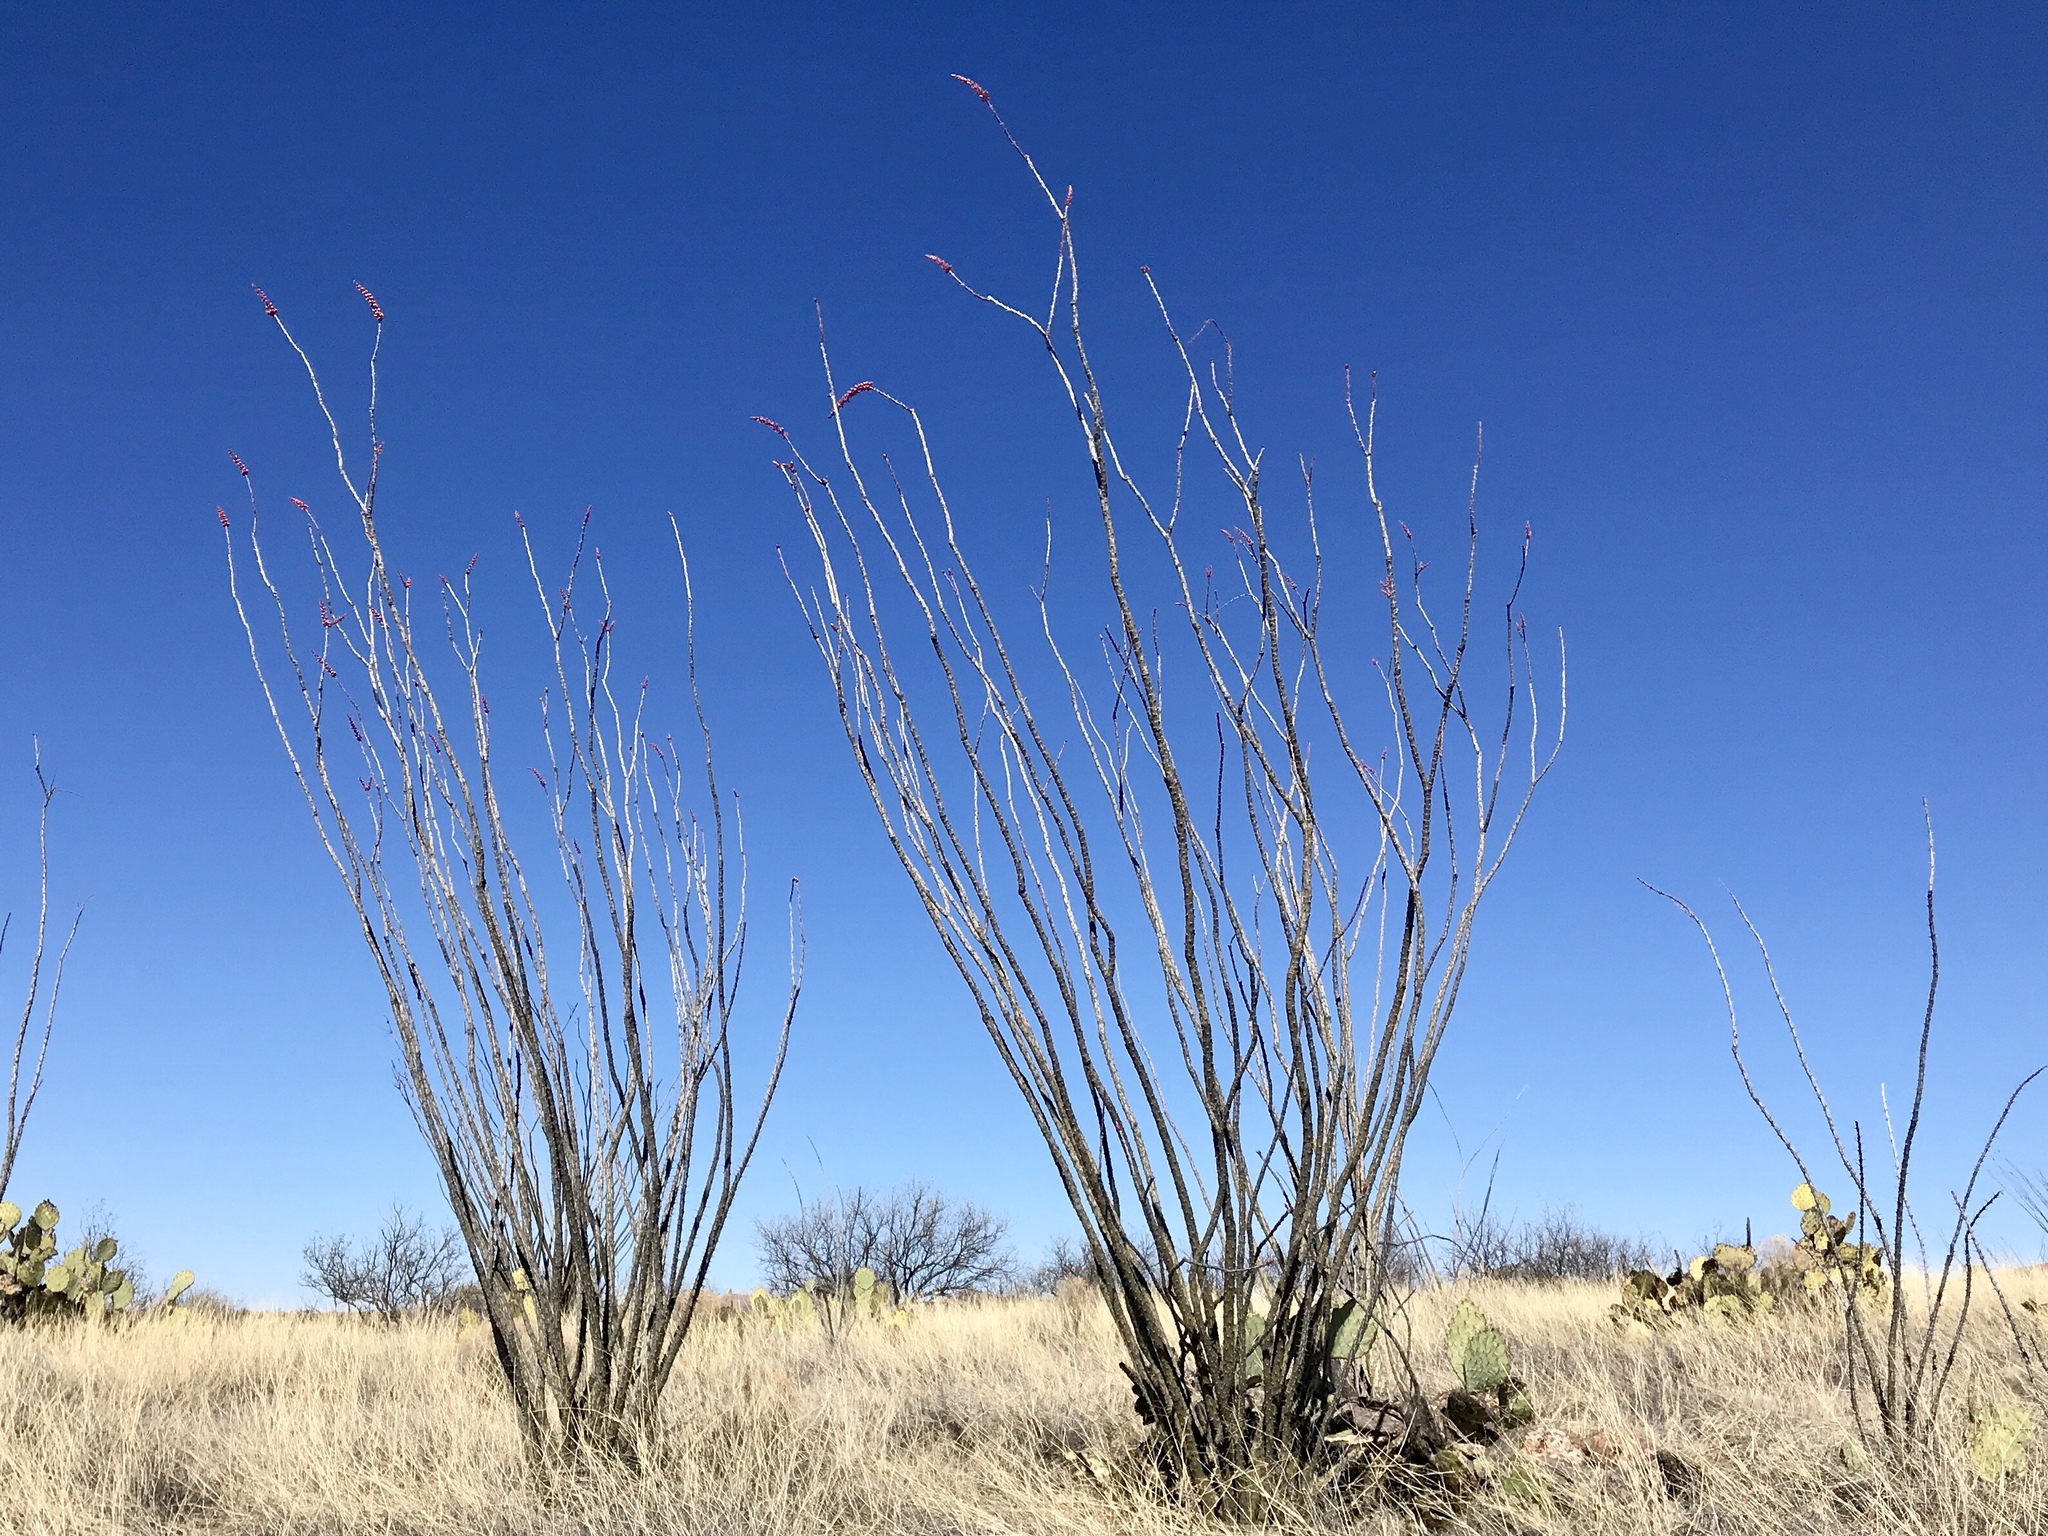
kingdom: Plantae
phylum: Tracheophyta
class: Magnoliopsida
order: Ericales
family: Fouquieriaceae
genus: Fouquieria
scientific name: Fouquieria splendens
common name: Vine-cactus
